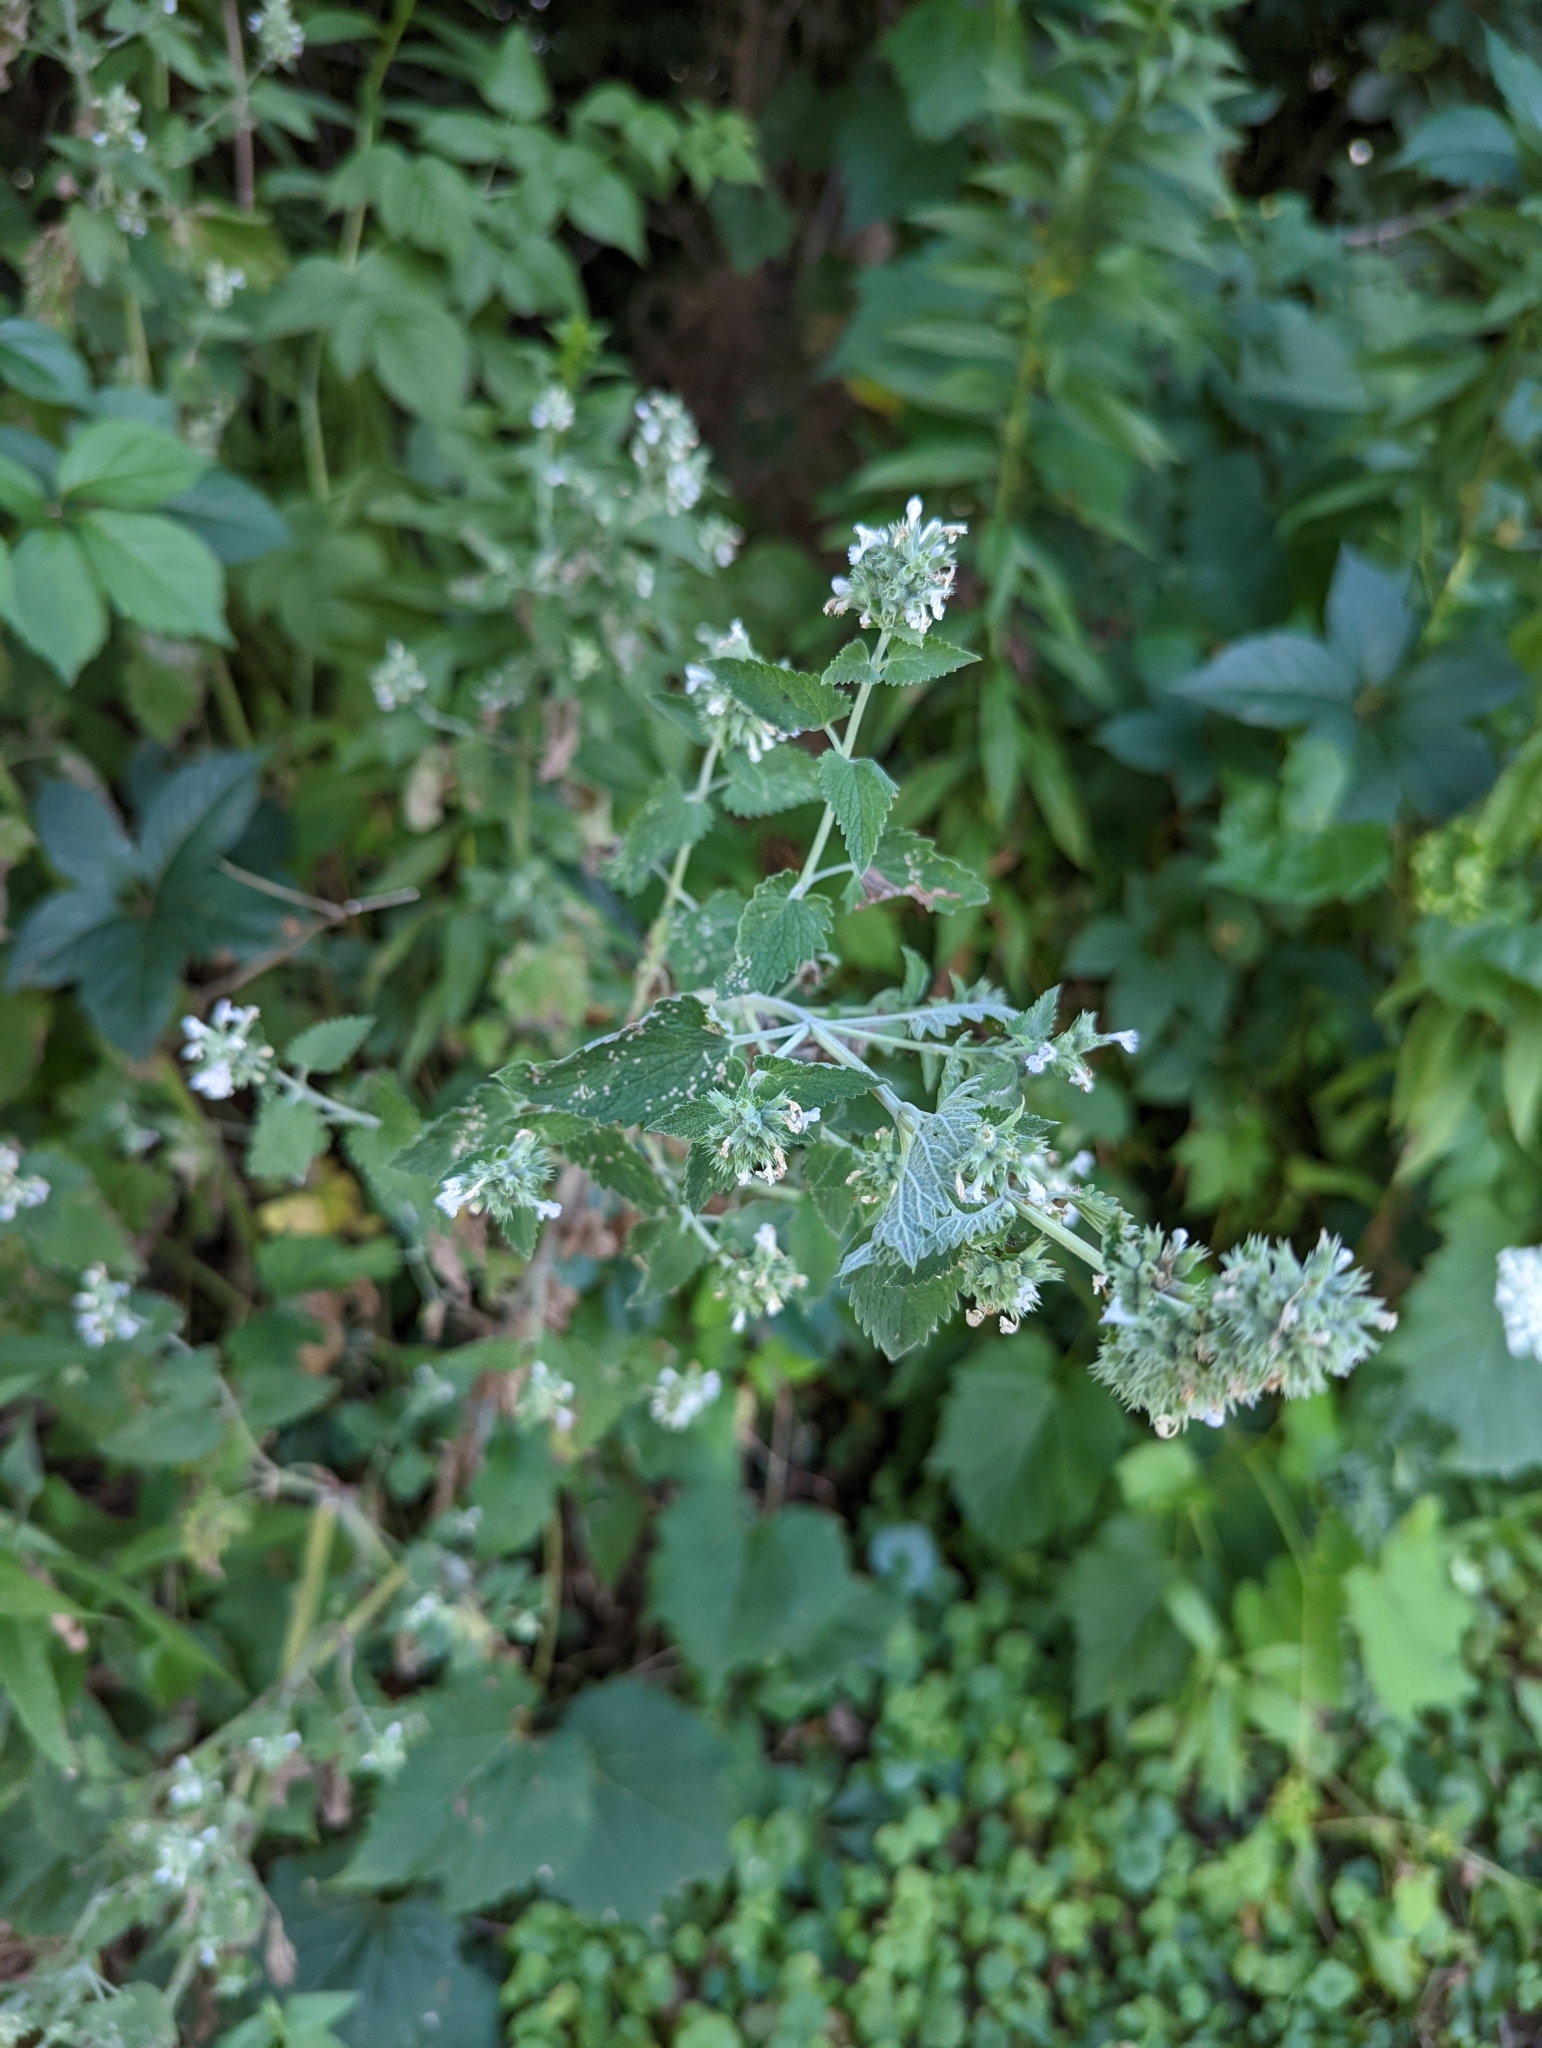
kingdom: Plantae
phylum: Tracheophyta
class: Magnoliopsida
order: Lamiales
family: Lamiaceae
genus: Nepeta
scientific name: Nepeta cataria
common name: Catnip
